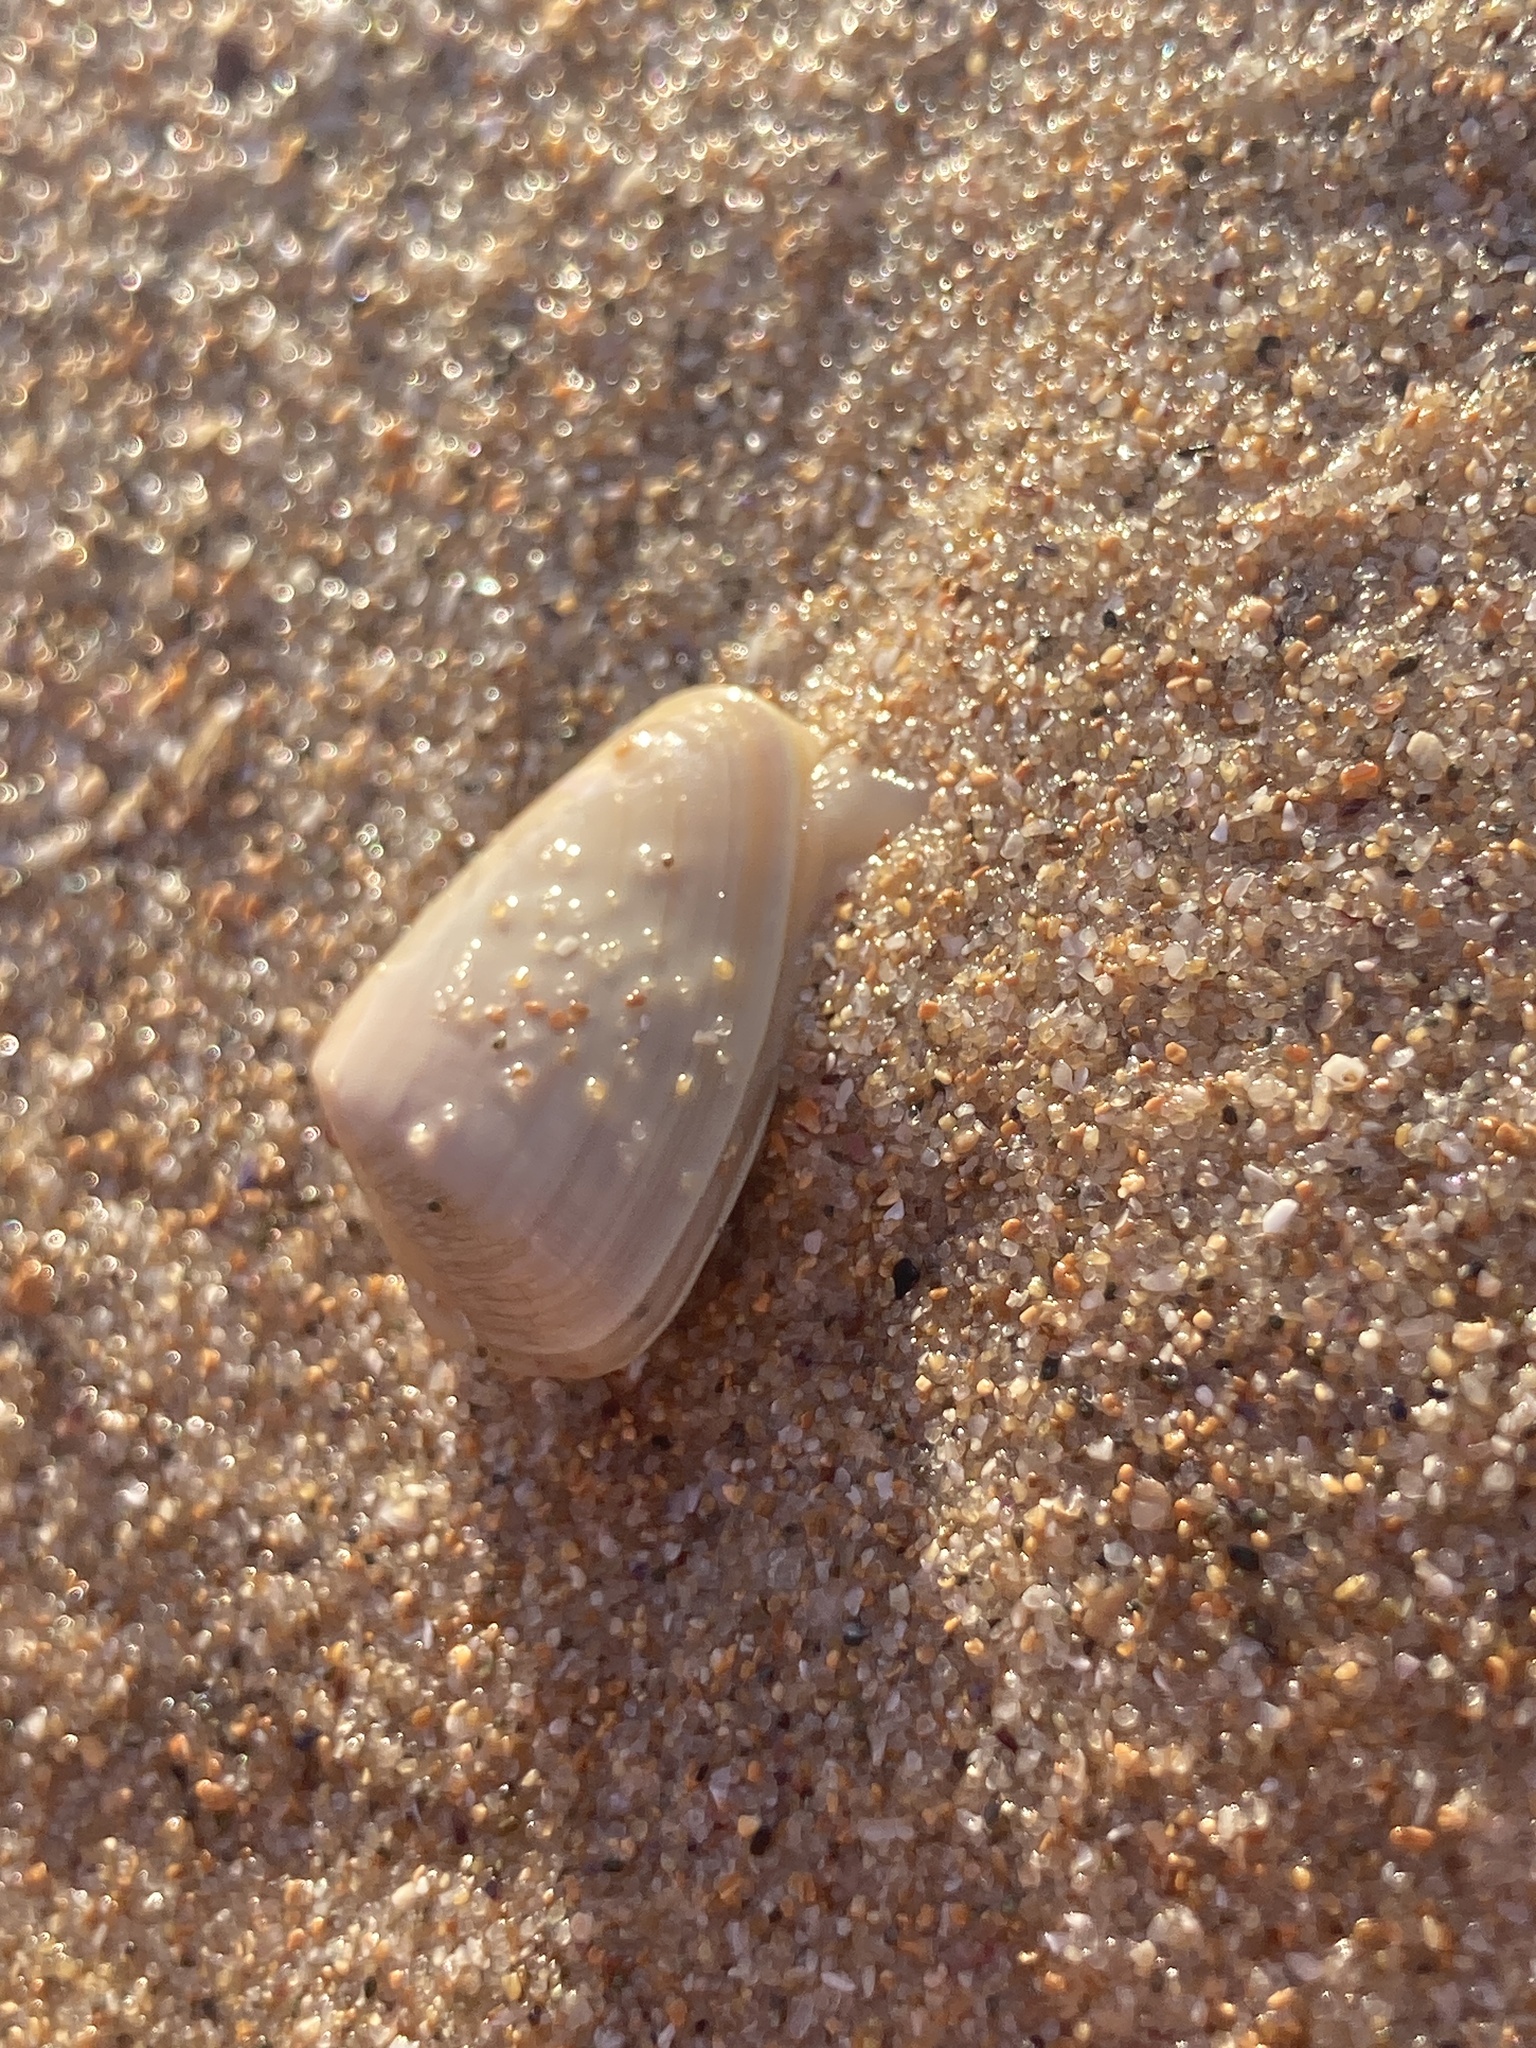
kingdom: Animalia
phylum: Mollusca
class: Bivalvia
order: Cardiida
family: Donacidae
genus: Latona
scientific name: Latona deltoides
